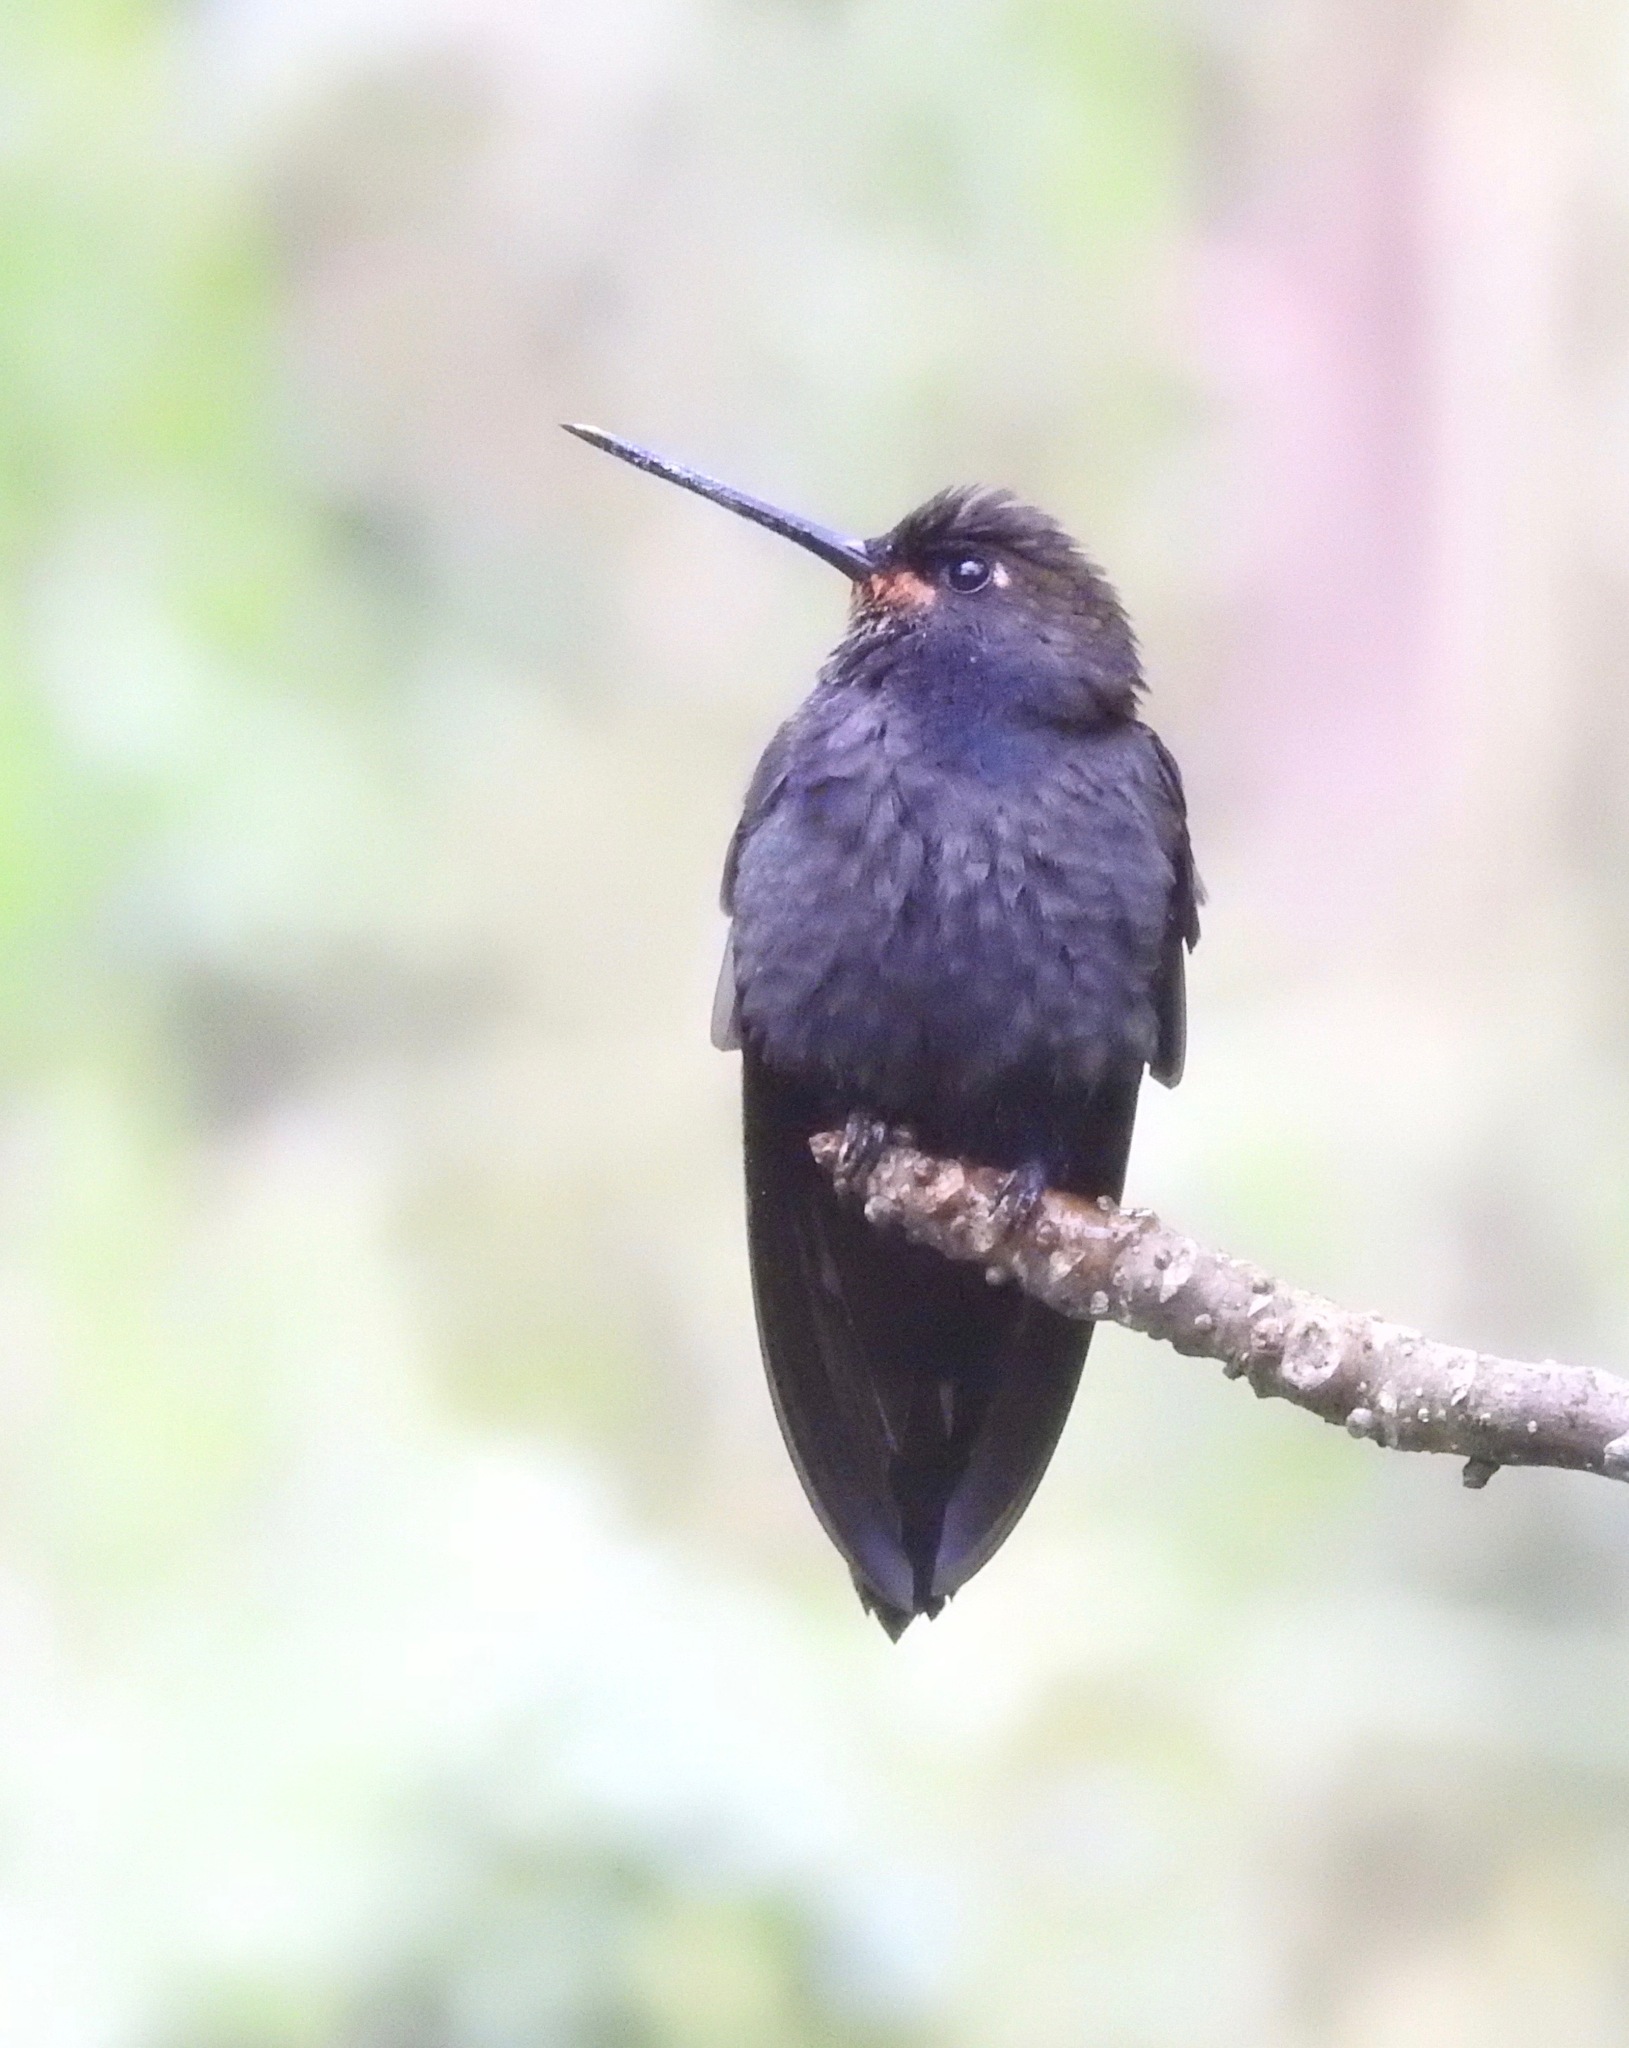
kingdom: Animalia
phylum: Chordata
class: Aves
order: Apodiformes
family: Trochilidae
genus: Urochroa
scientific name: Urochroa bougueri
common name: White-tailed hillstar
